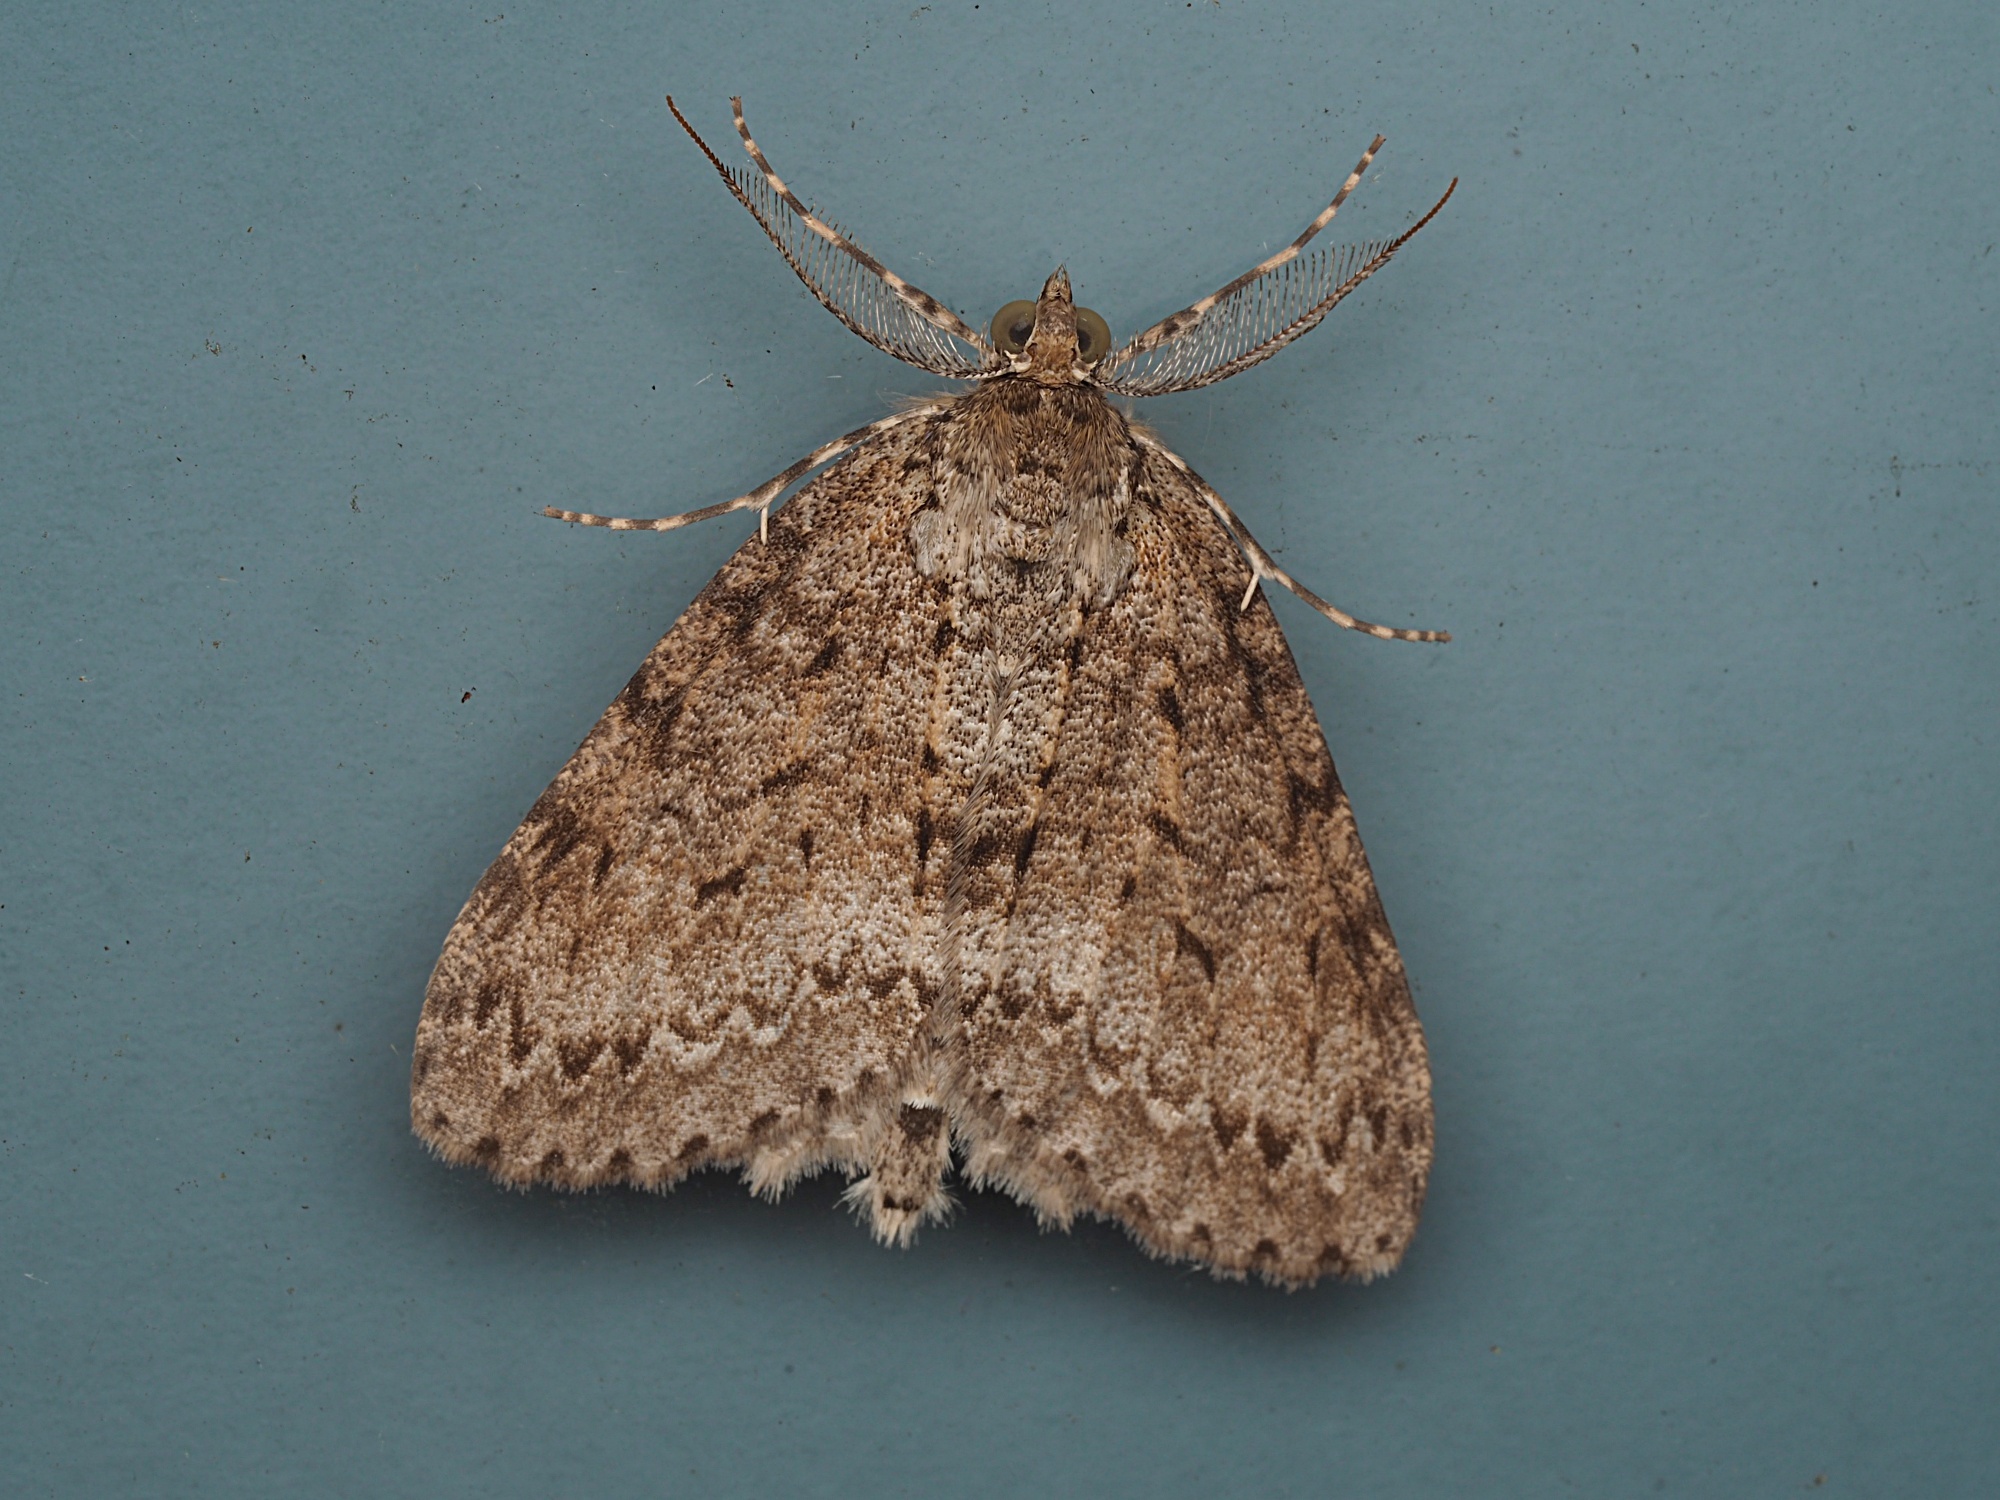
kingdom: Animalia
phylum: Arthropoda
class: Insecta
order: Lepidoptera
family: Geometridae
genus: Pseudocoremia
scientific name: Pseudocoremia fenerata
